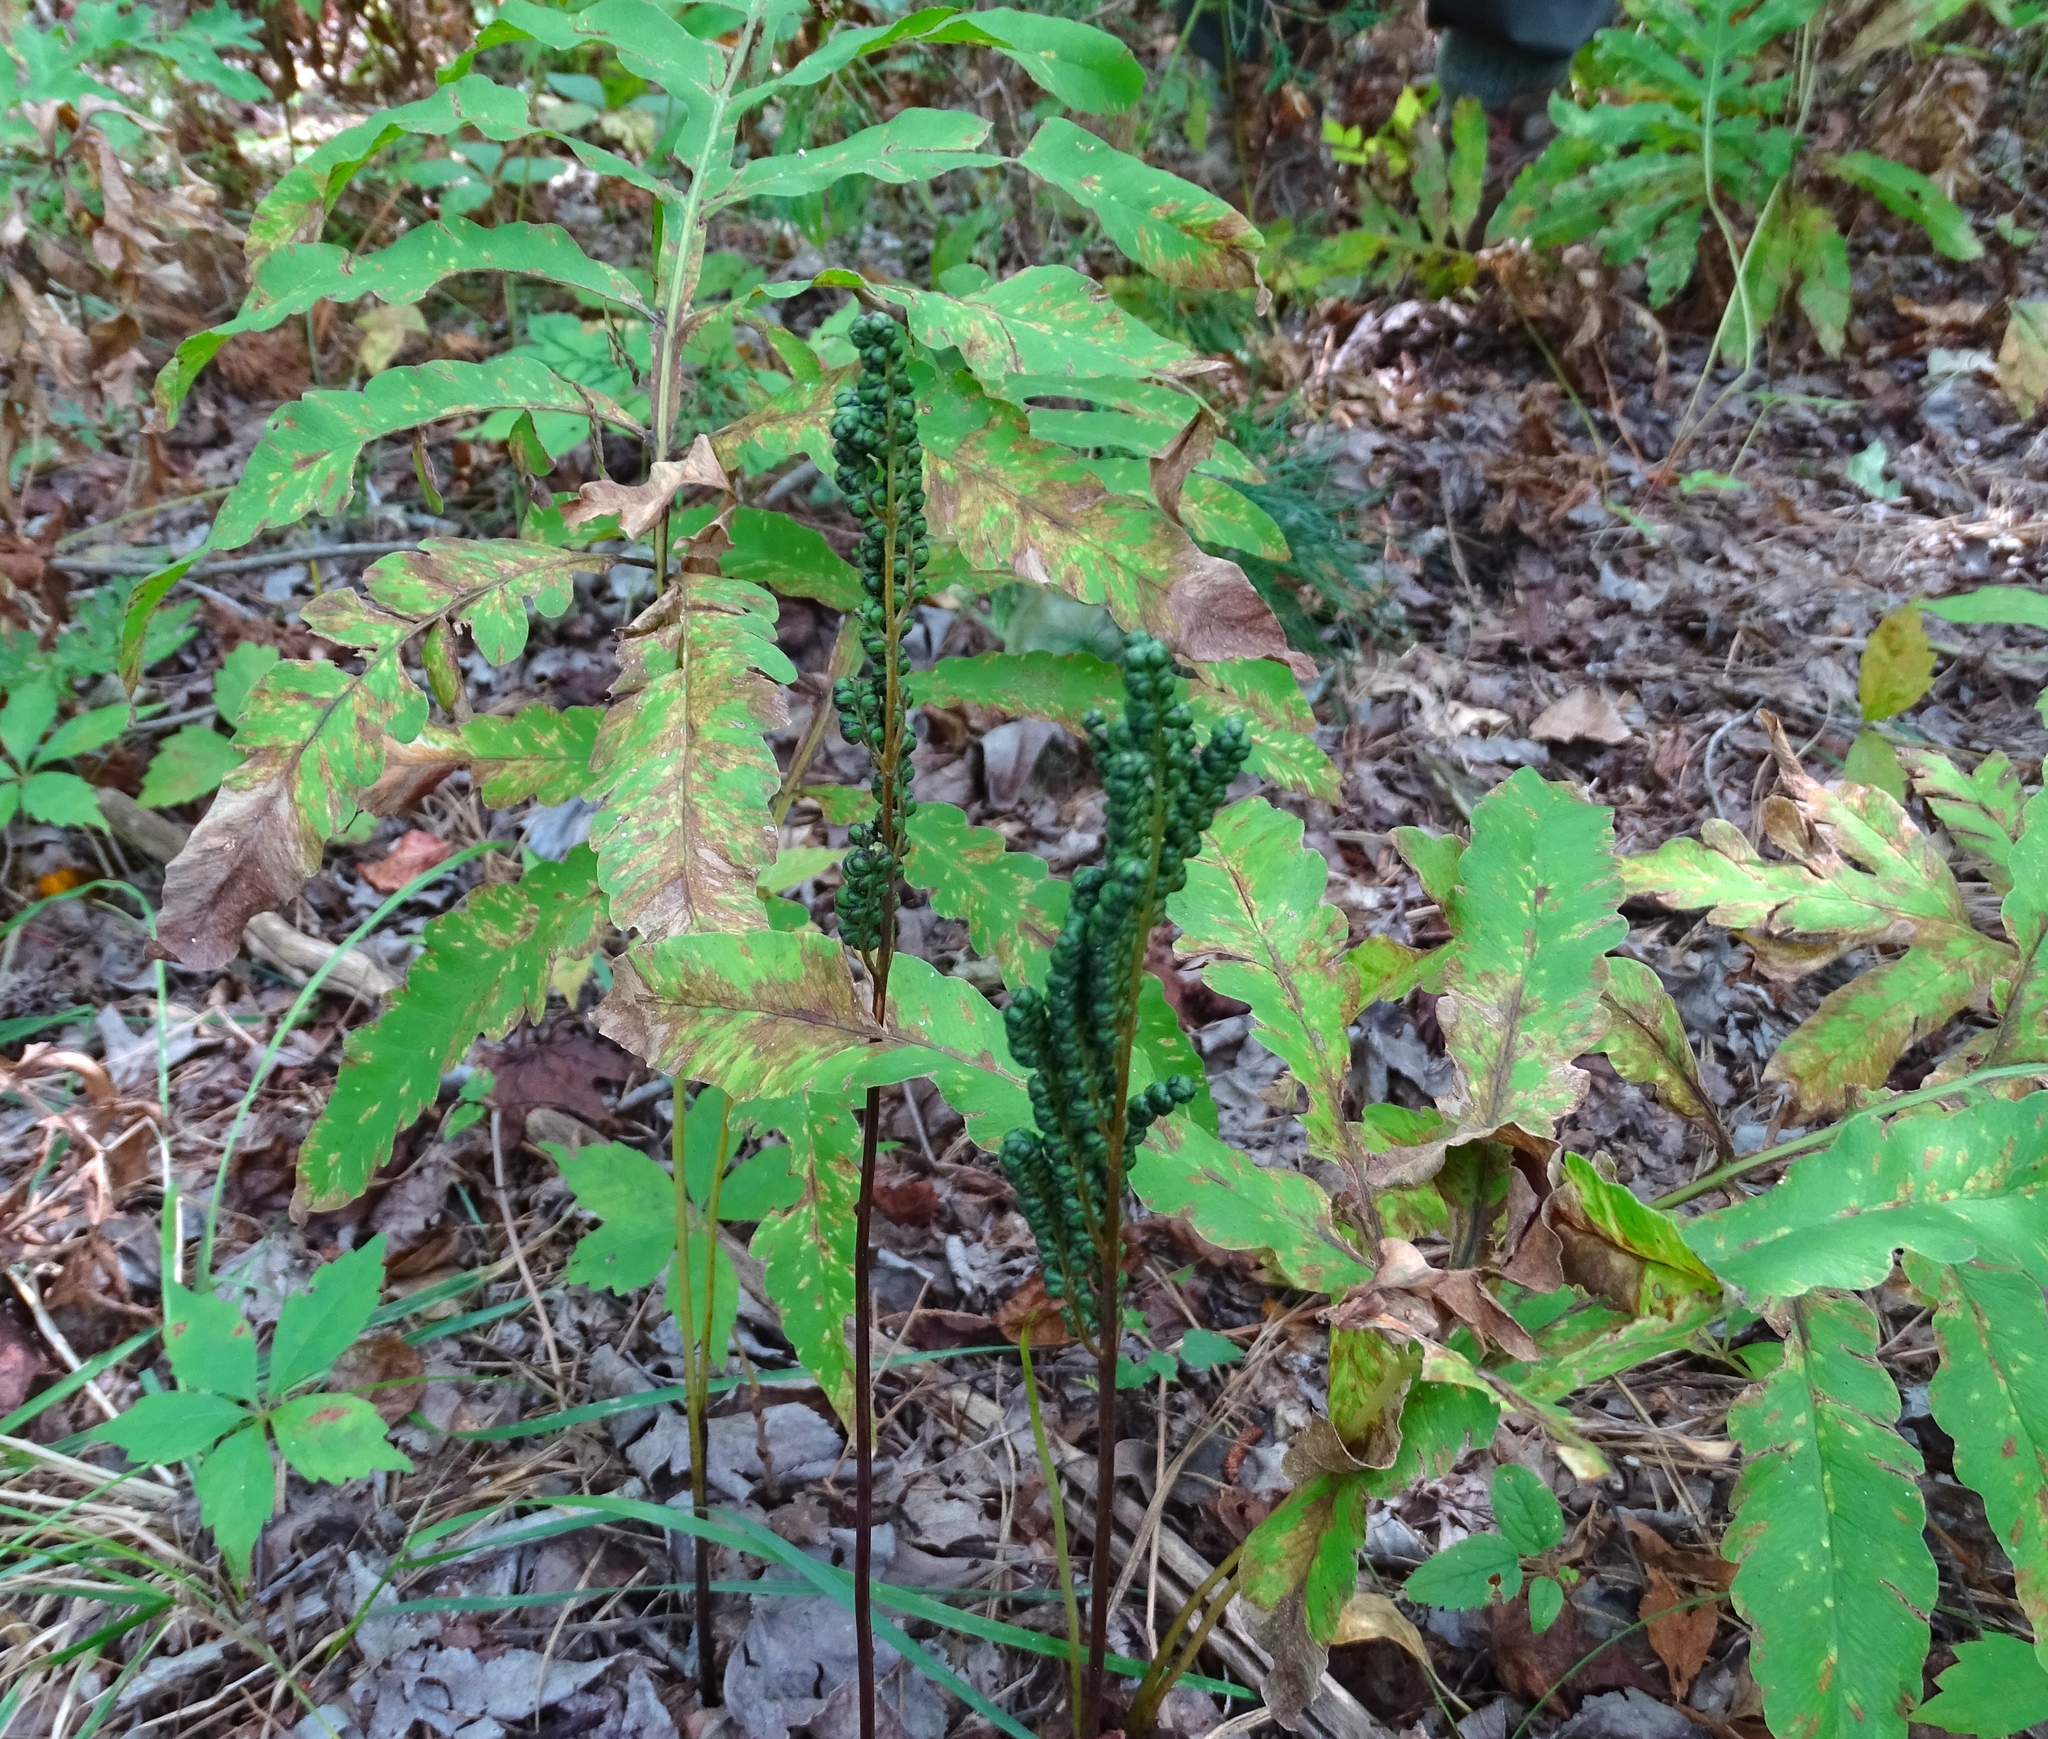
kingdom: Plantae
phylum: Tracheophyta
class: Polypodiopsida
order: Polypodiales
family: Onocleaceae
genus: Onoclea
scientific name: Onoclea sensibilis
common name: Sensitive fern
